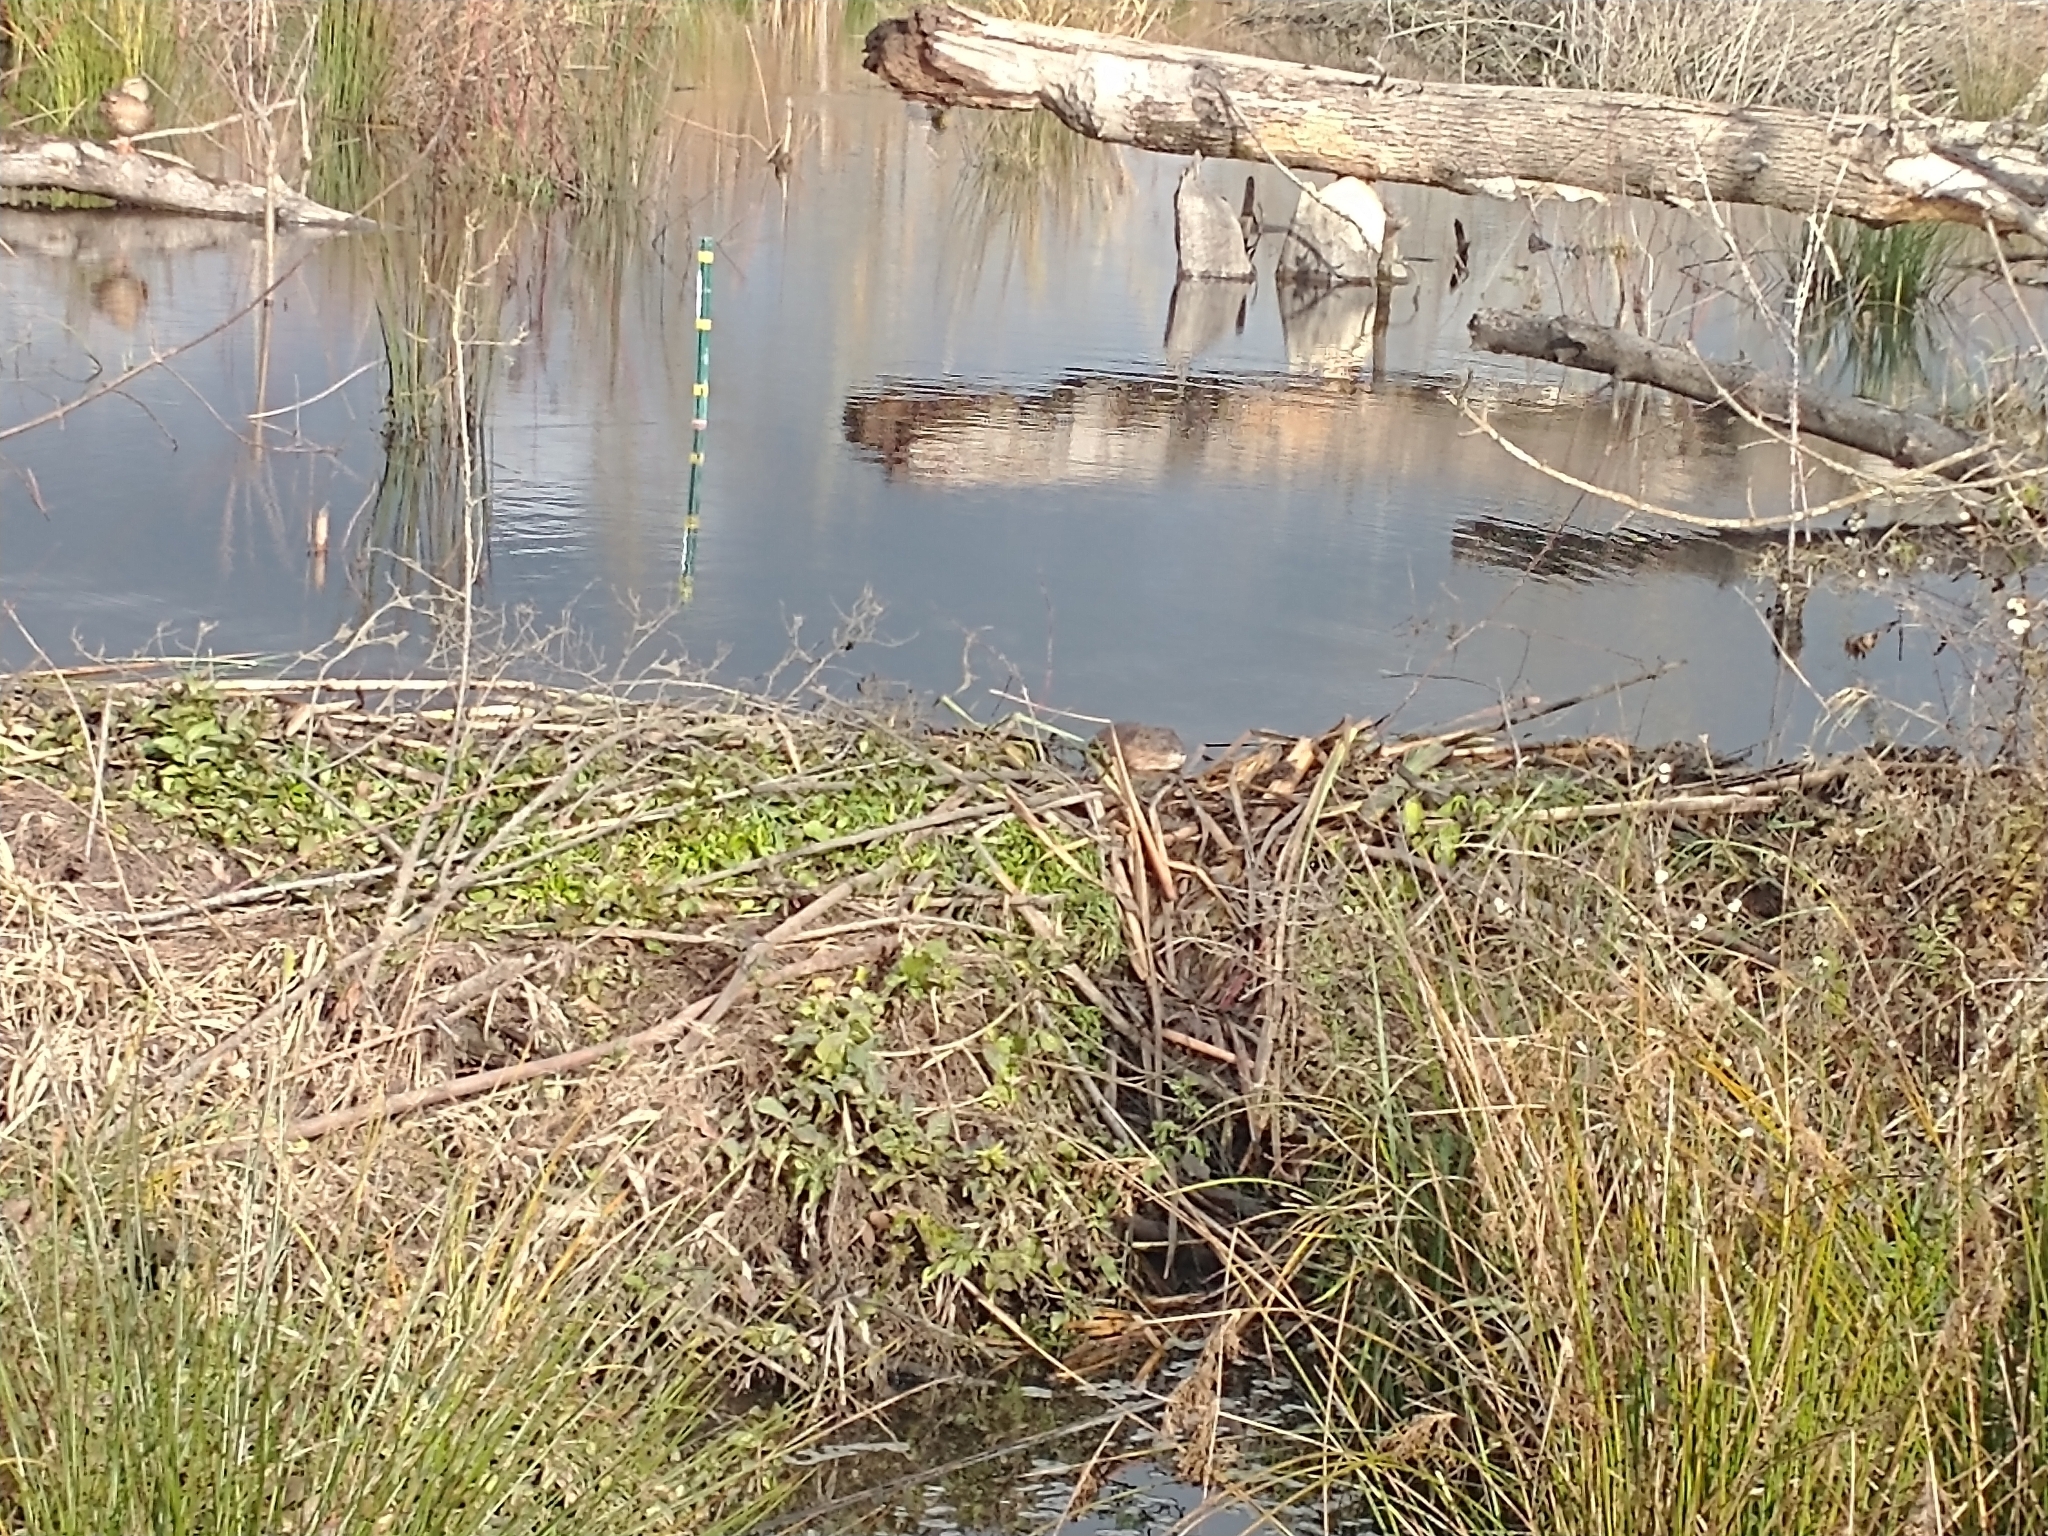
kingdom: Animalia
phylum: Chordata
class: Mammalia
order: Rodentia
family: Cricetidae
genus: Ondatra
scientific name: Ondatra zibethicus
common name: Muskrat
